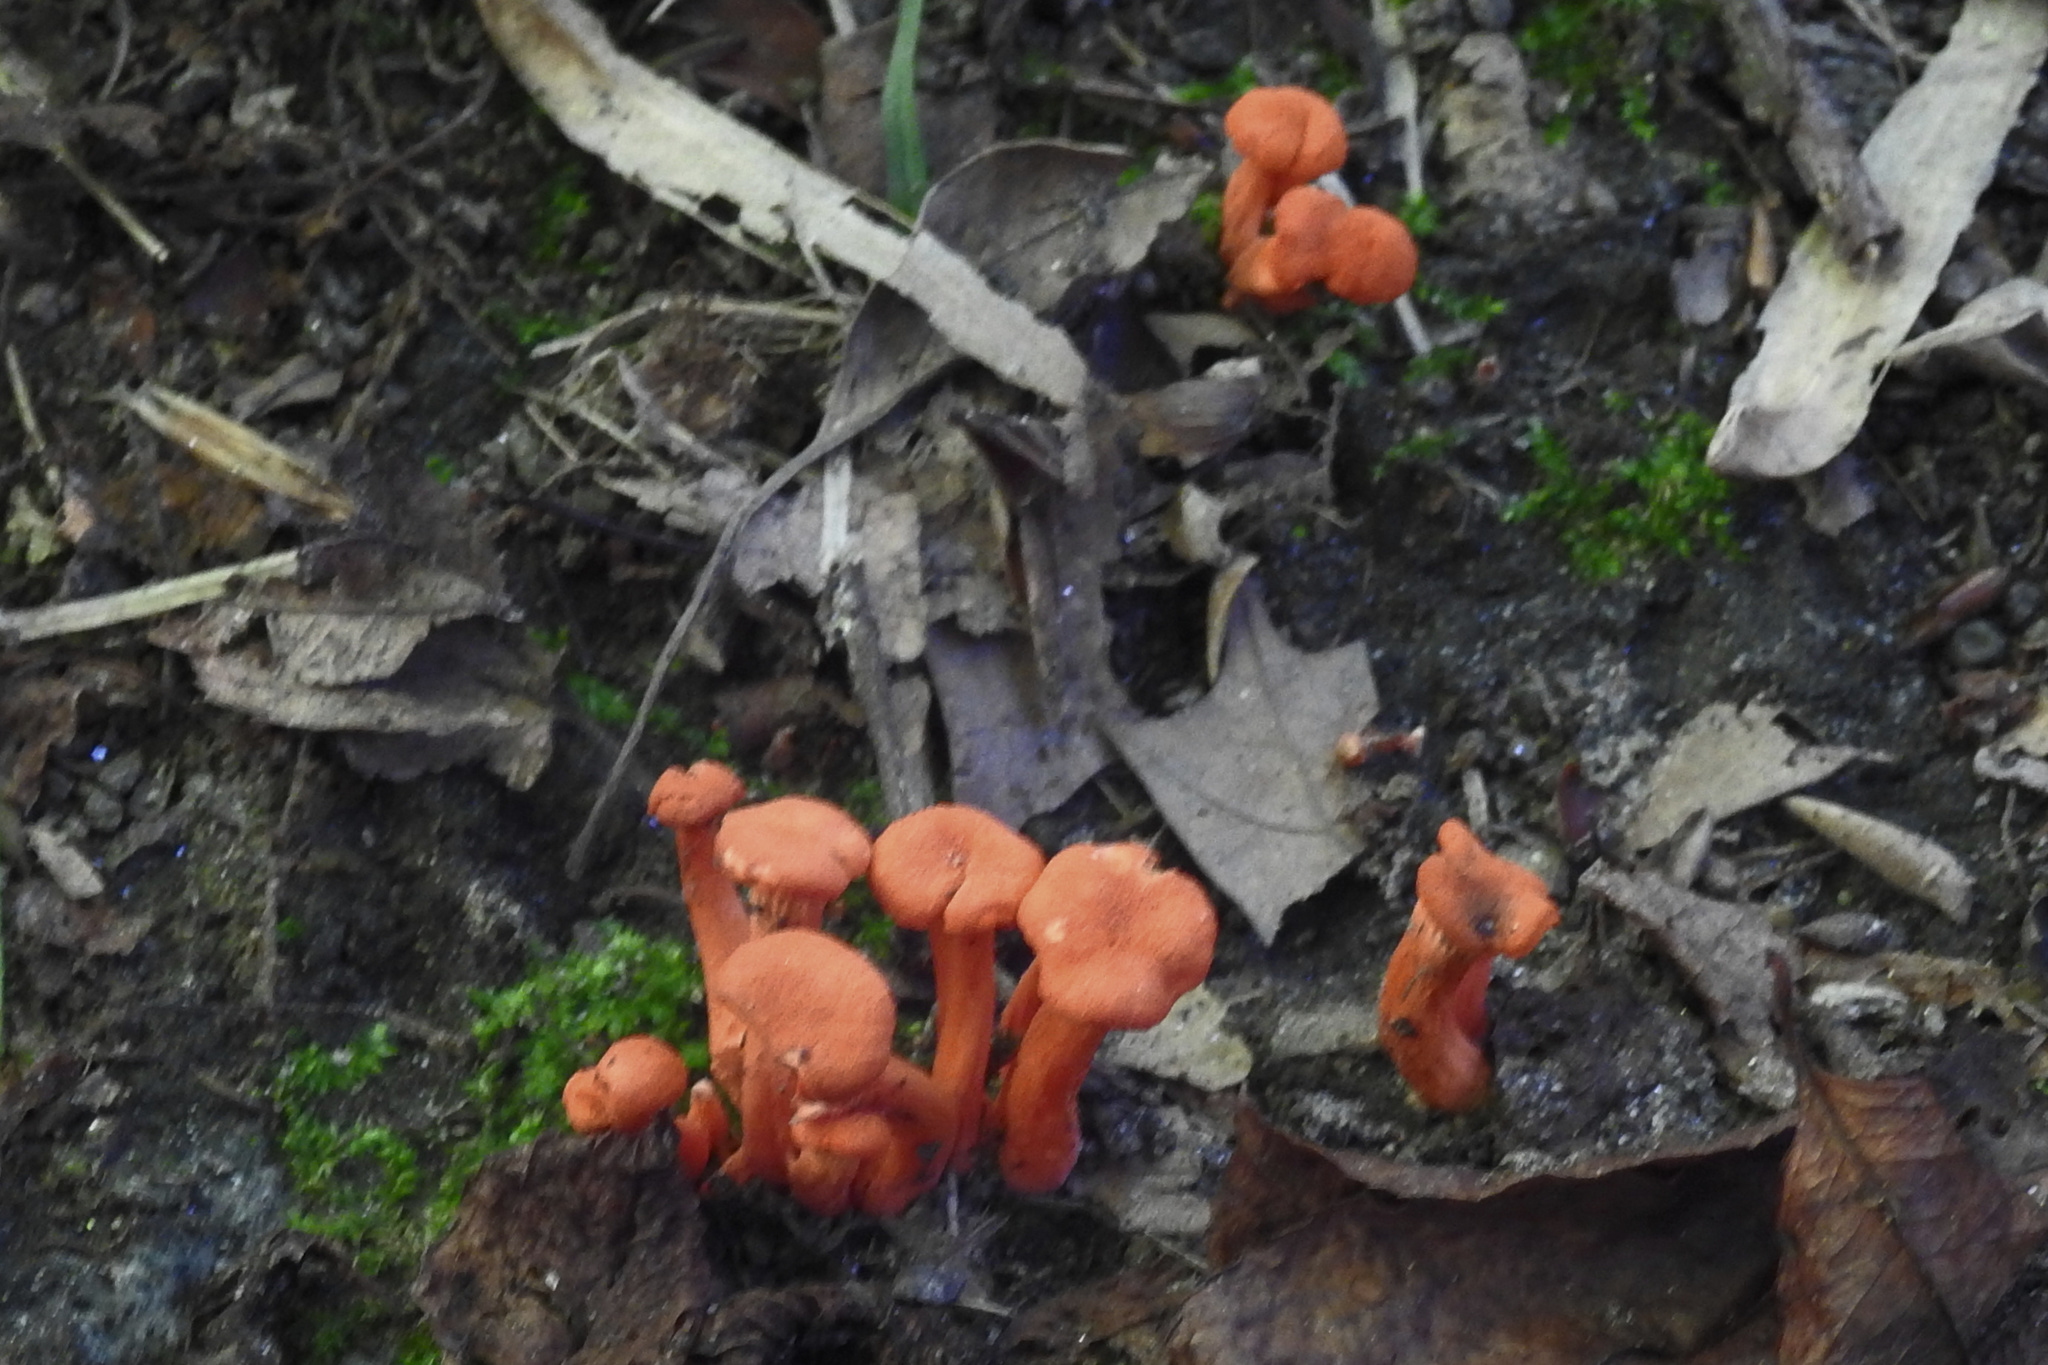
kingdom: Fungi
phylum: Basidiomycota
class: Agaricomycetes
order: Cantharellales
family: Hydnaceae
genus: Cantharellus
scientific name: Cantharellus cinnabarinus
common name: Cinnabar chanterelle
